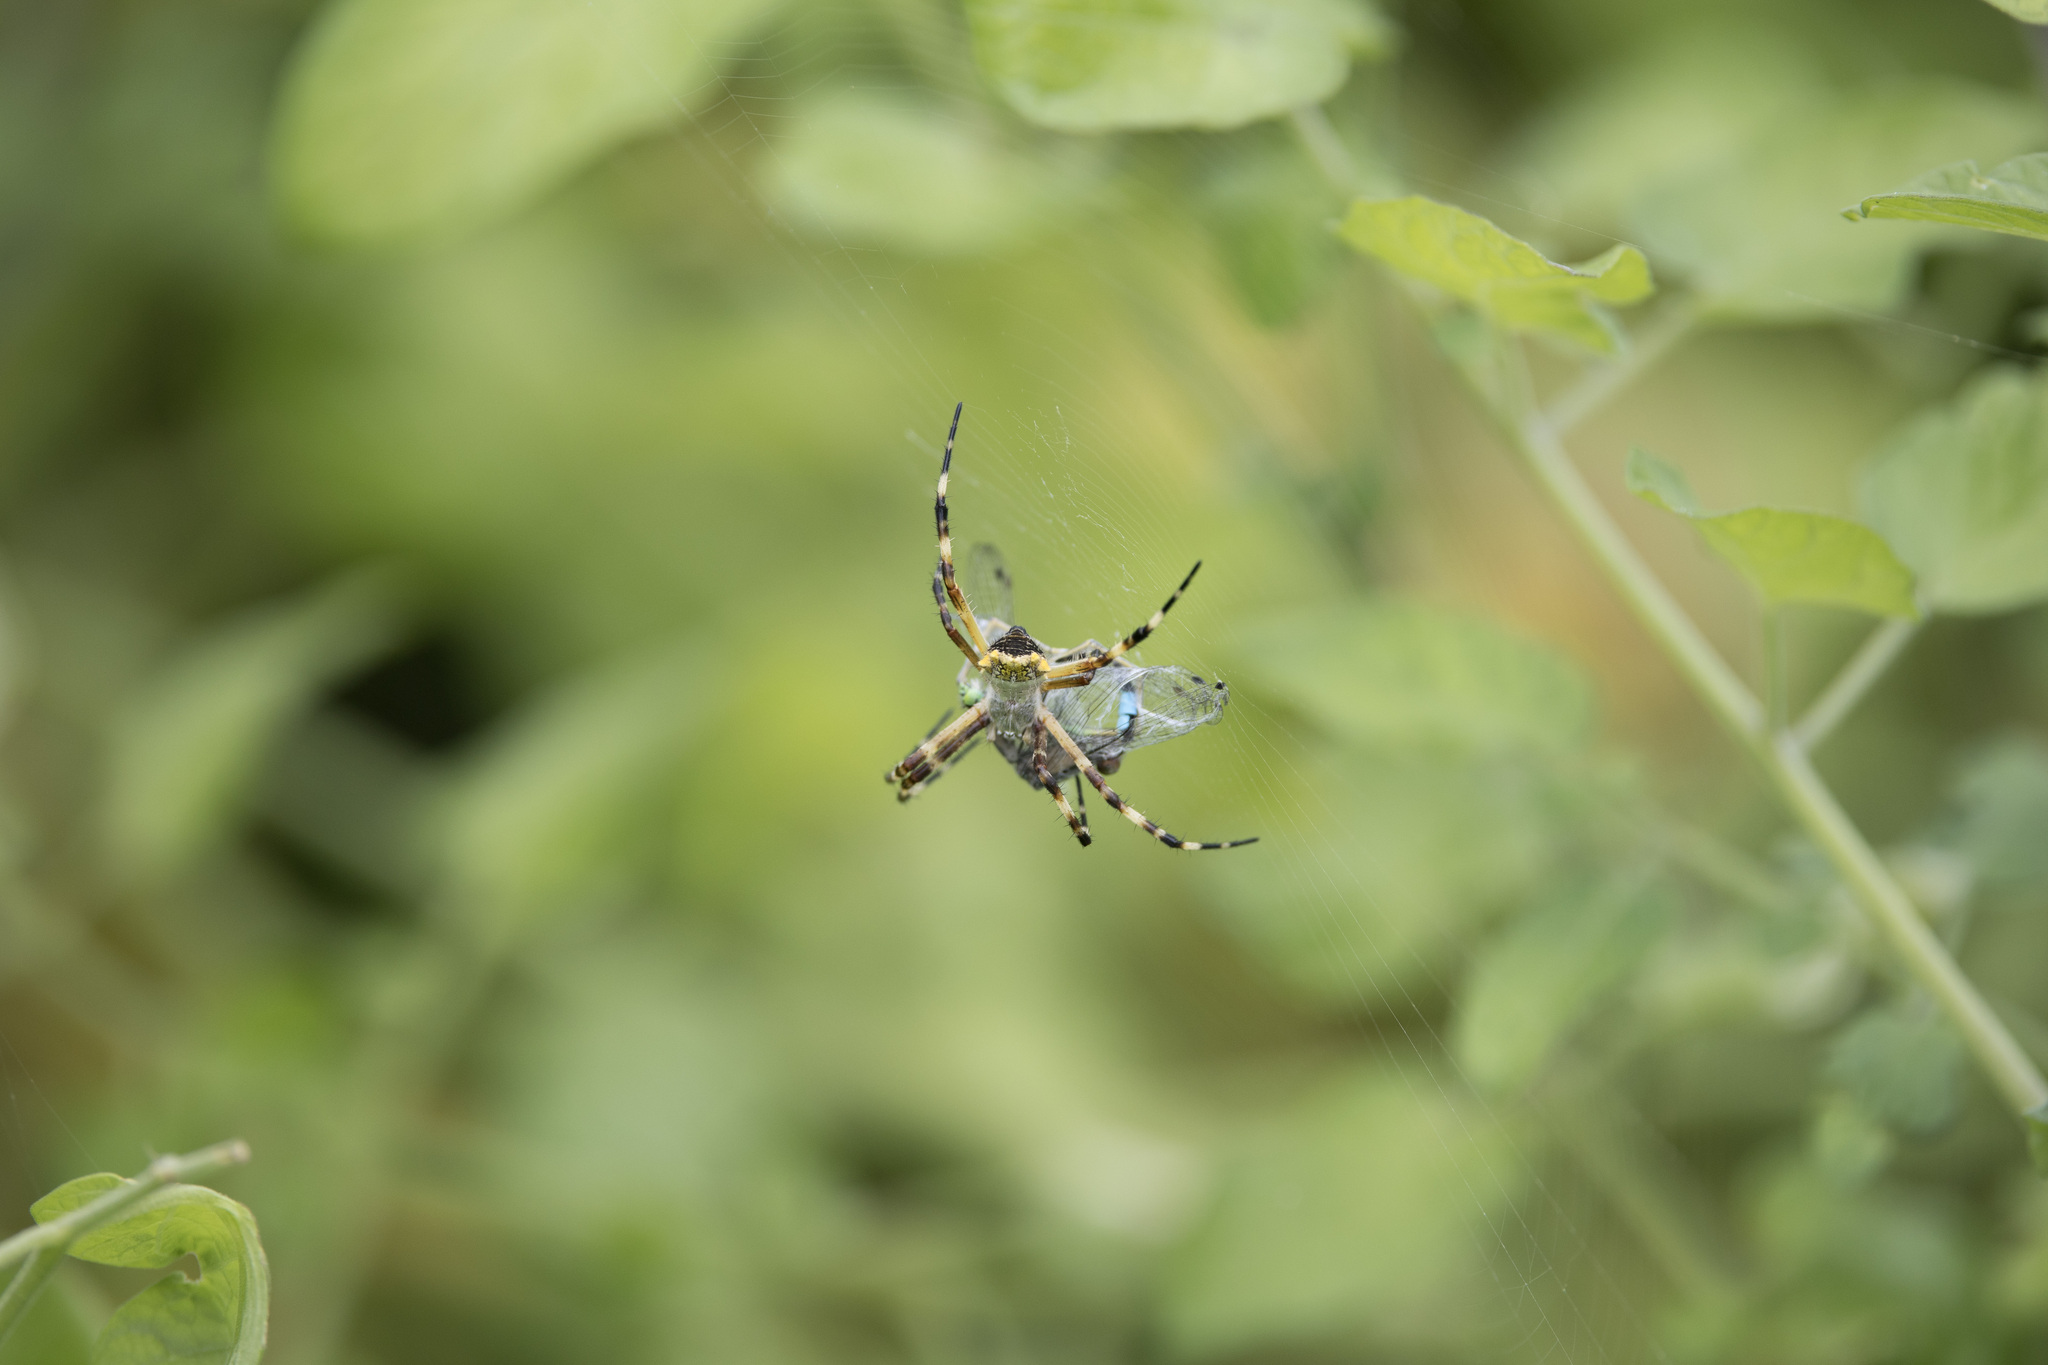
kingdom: Animalia
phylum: Arthropoda
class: Insecta
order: Odonata
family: Coenagrionidae
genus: Ischnura
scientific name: Ischnura ramburii
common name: Rambur's forktail
